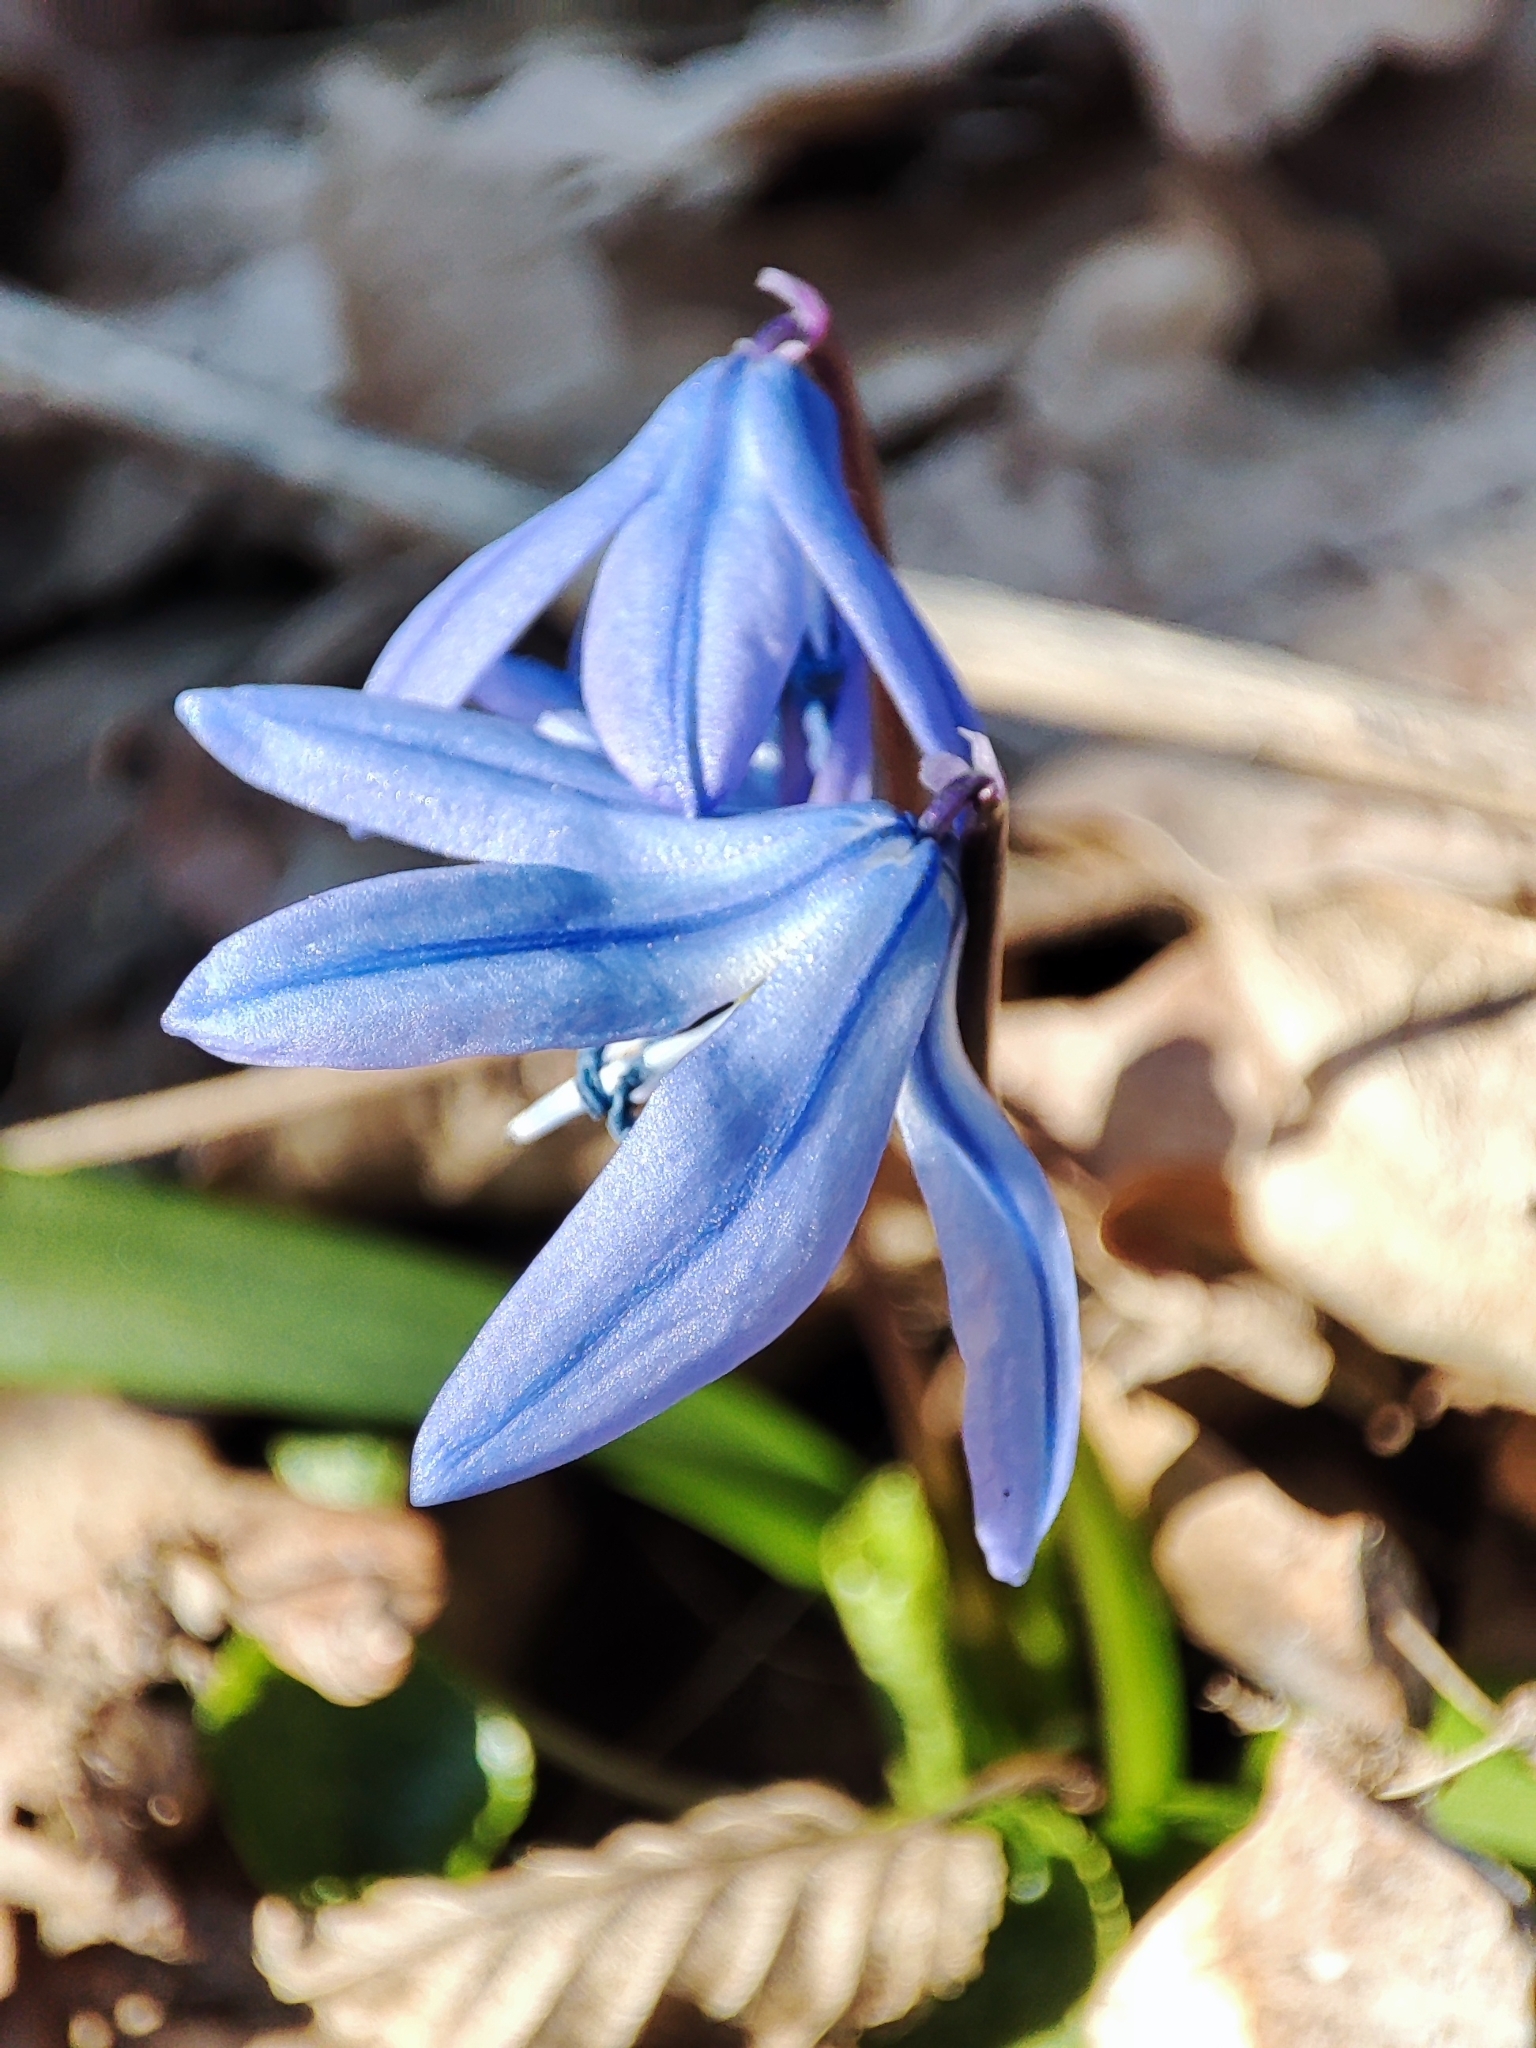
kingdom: Plantae
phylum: Tracheophyta
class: Liliopsida
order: Asparagales
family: Asparagaceae
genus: Scilla
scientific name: Scilla siberica
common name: Siberian squill
